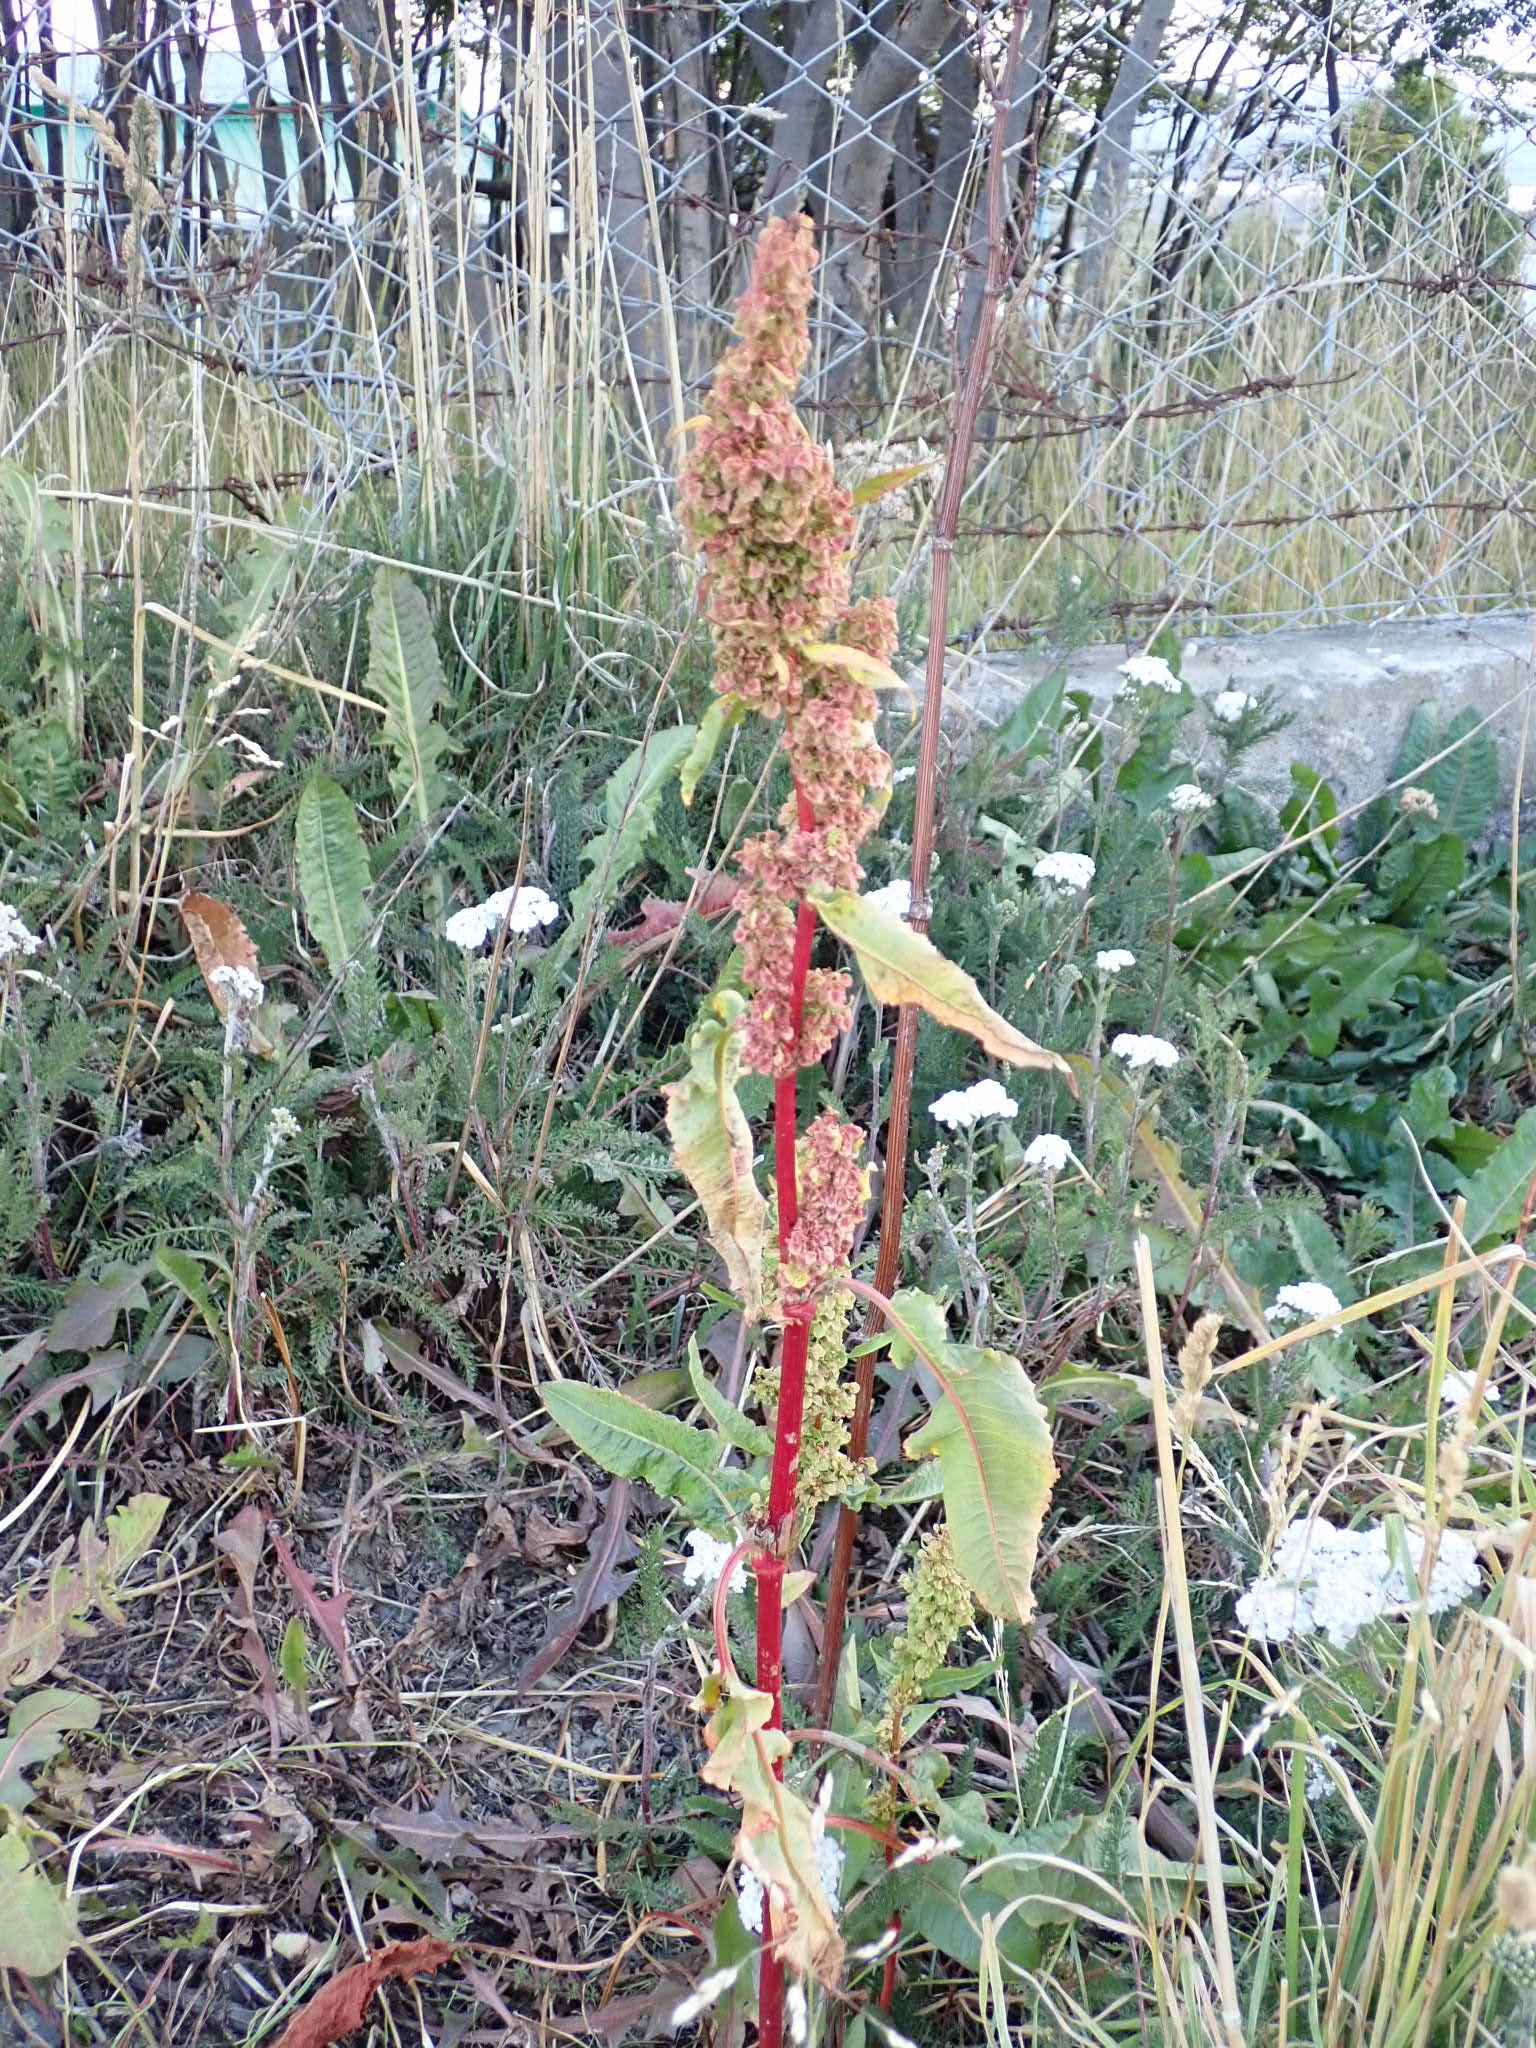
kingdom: Plantae
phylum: Tracheophyta
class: Magnoliopsida
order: Caryophyllales
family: Polygonaceae
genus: Rumex
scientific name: Rumex crispus
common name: Curled dock
